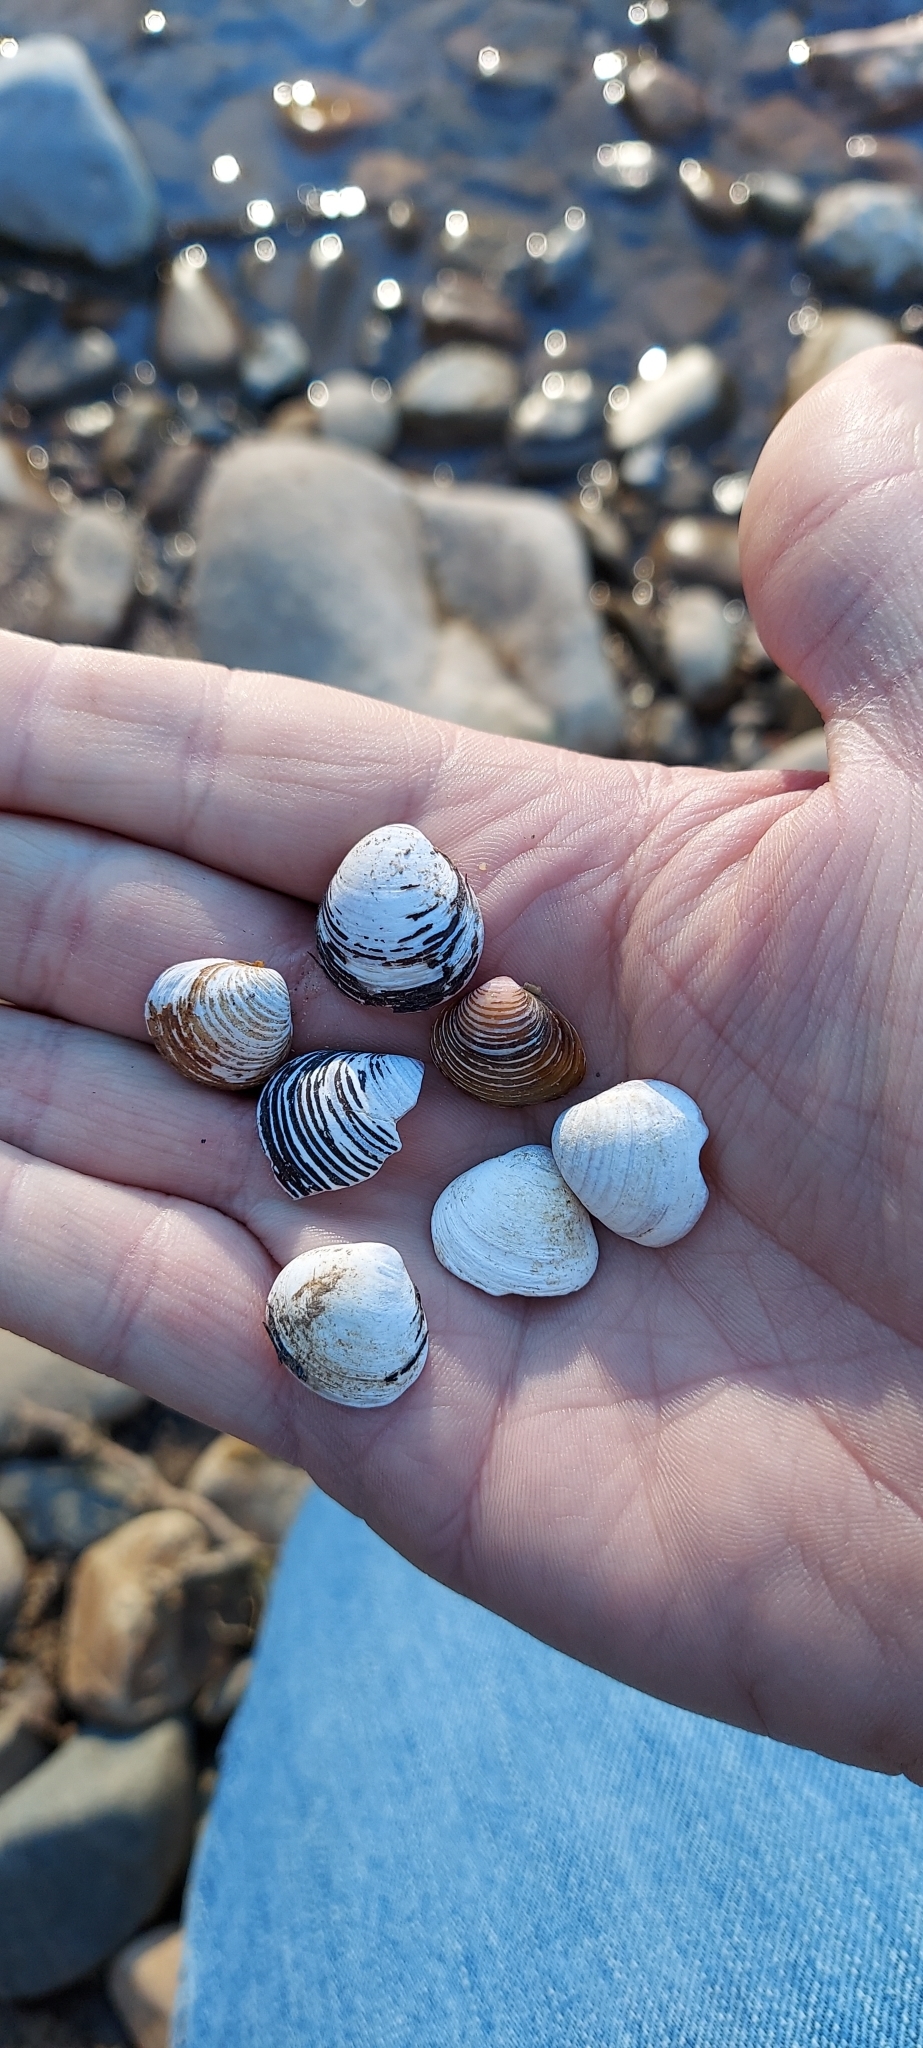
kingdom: Animalia
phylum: Mollusca
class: Bivalvia
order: Venerida
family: Cyrenidae
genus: Corbicula
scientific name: Corbicula fluminea
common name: Asian clam
